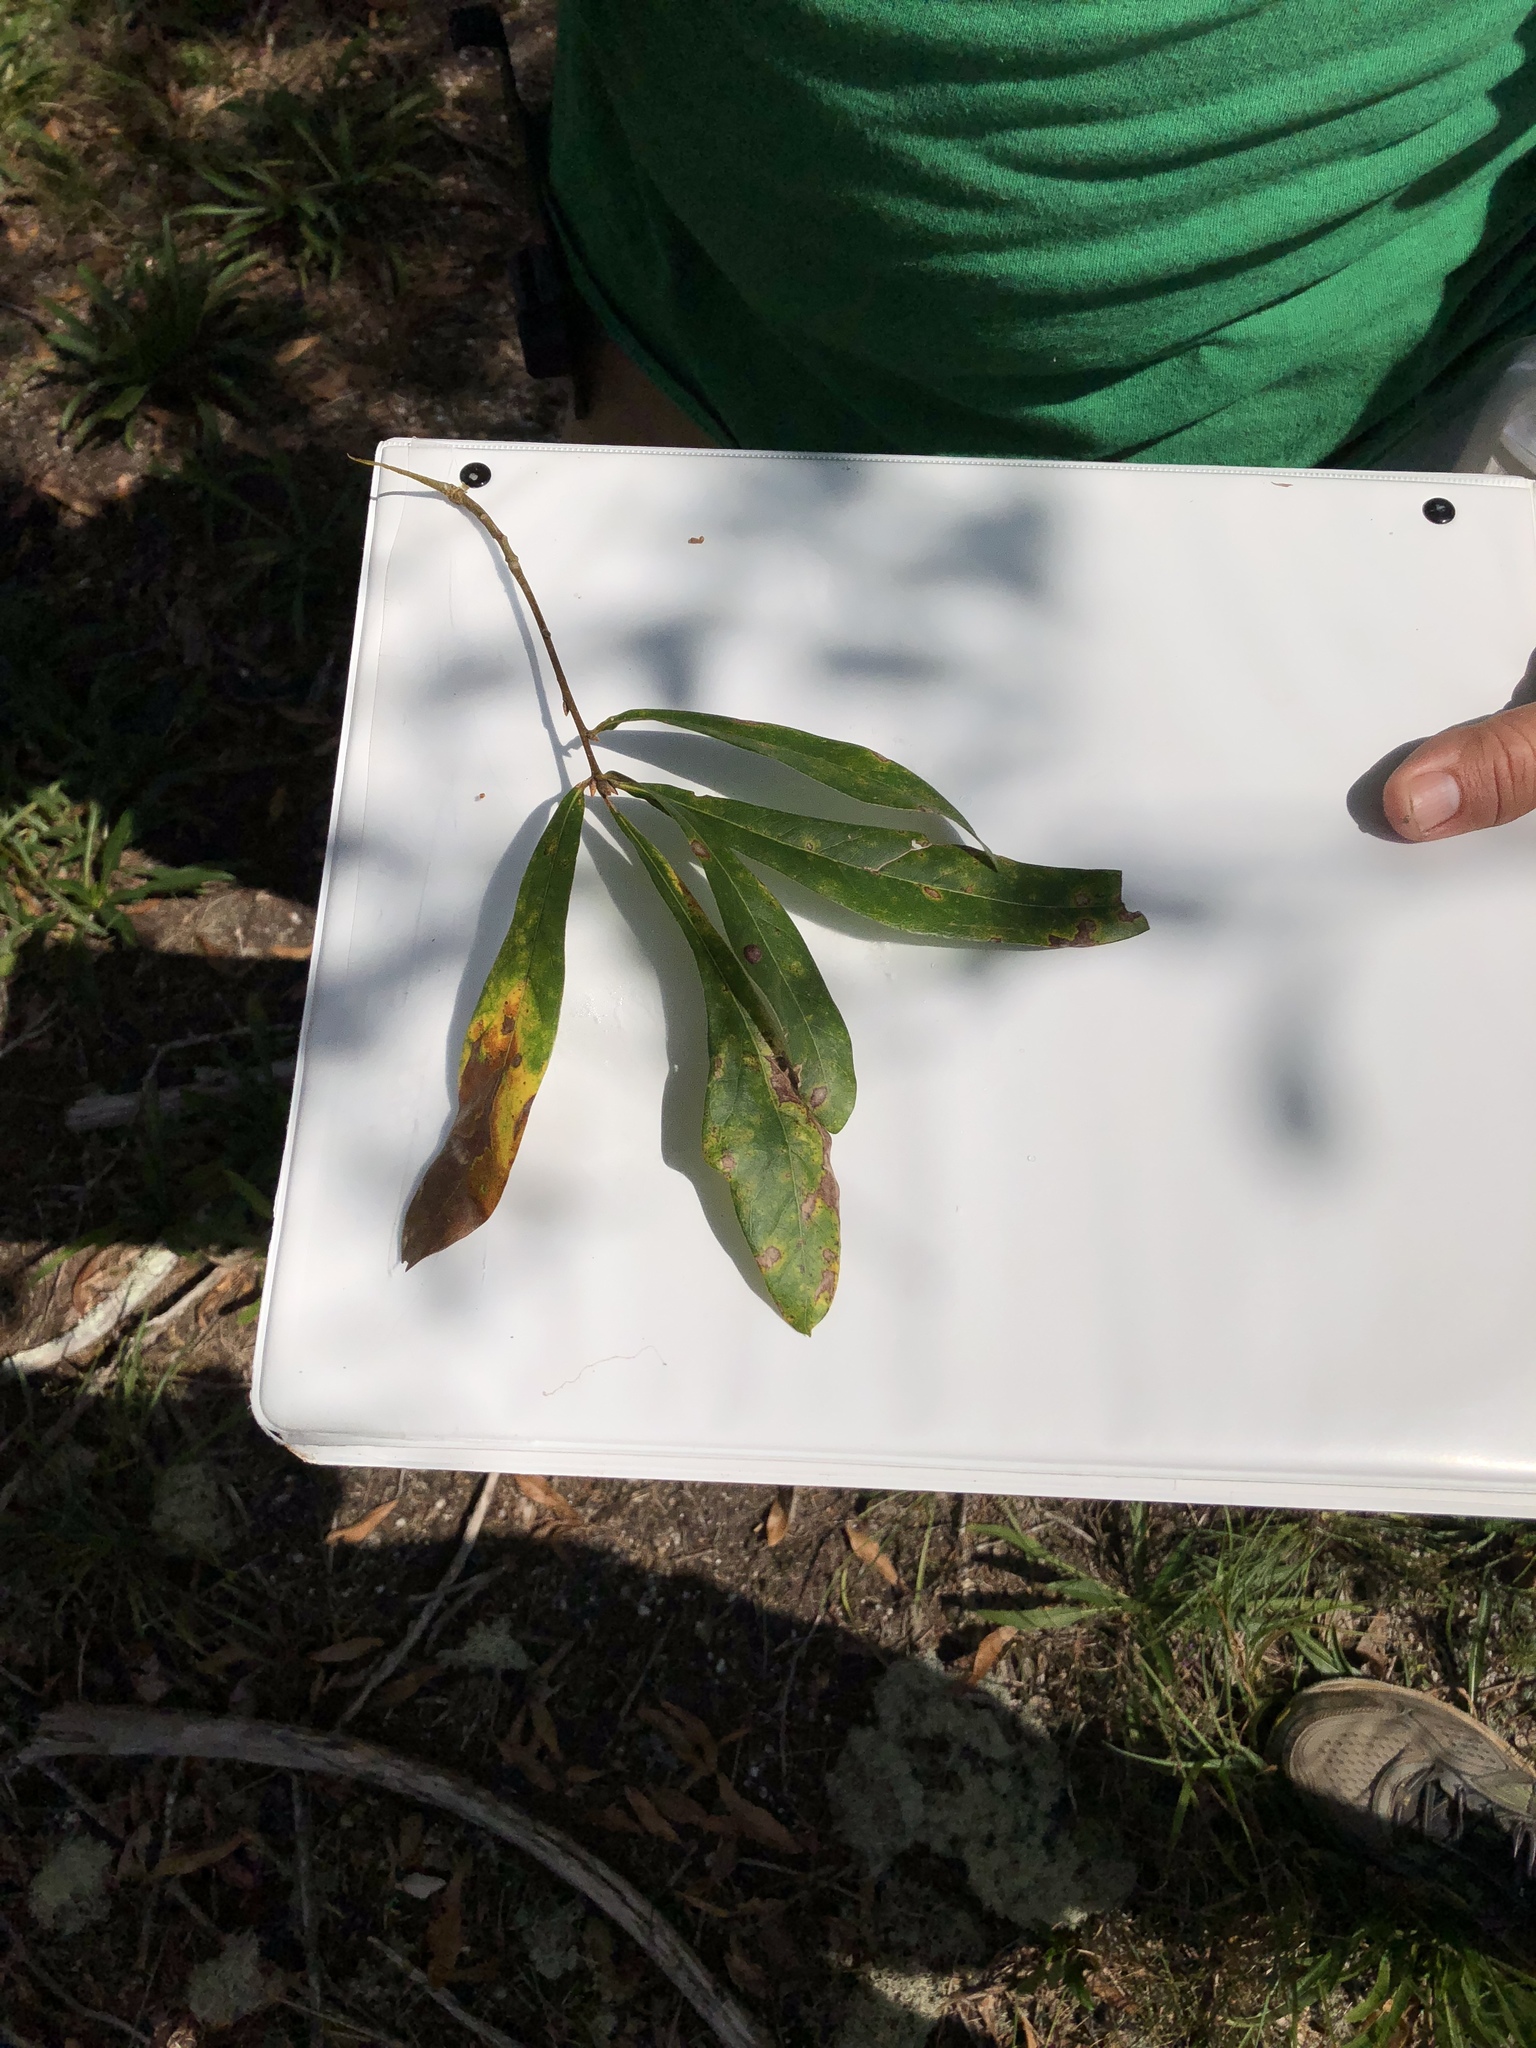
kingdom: Plantae
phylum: Tracheophyta
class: Magnoliopsida
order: Fagales
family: Fagaceae
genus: Quercus
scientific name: Quercus nigra
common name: Water oak
